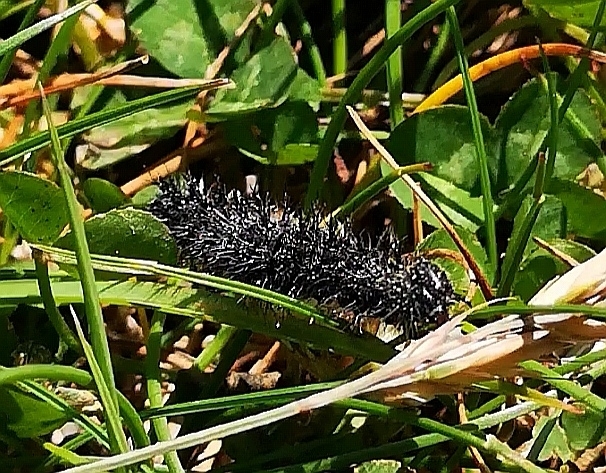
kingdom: Animalia
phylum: Arthropoda
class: Insecta
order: Lepidoptera
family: Nymphalidae
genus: Aglais
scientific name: Aglais urticae
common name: Small tortoiseshell
